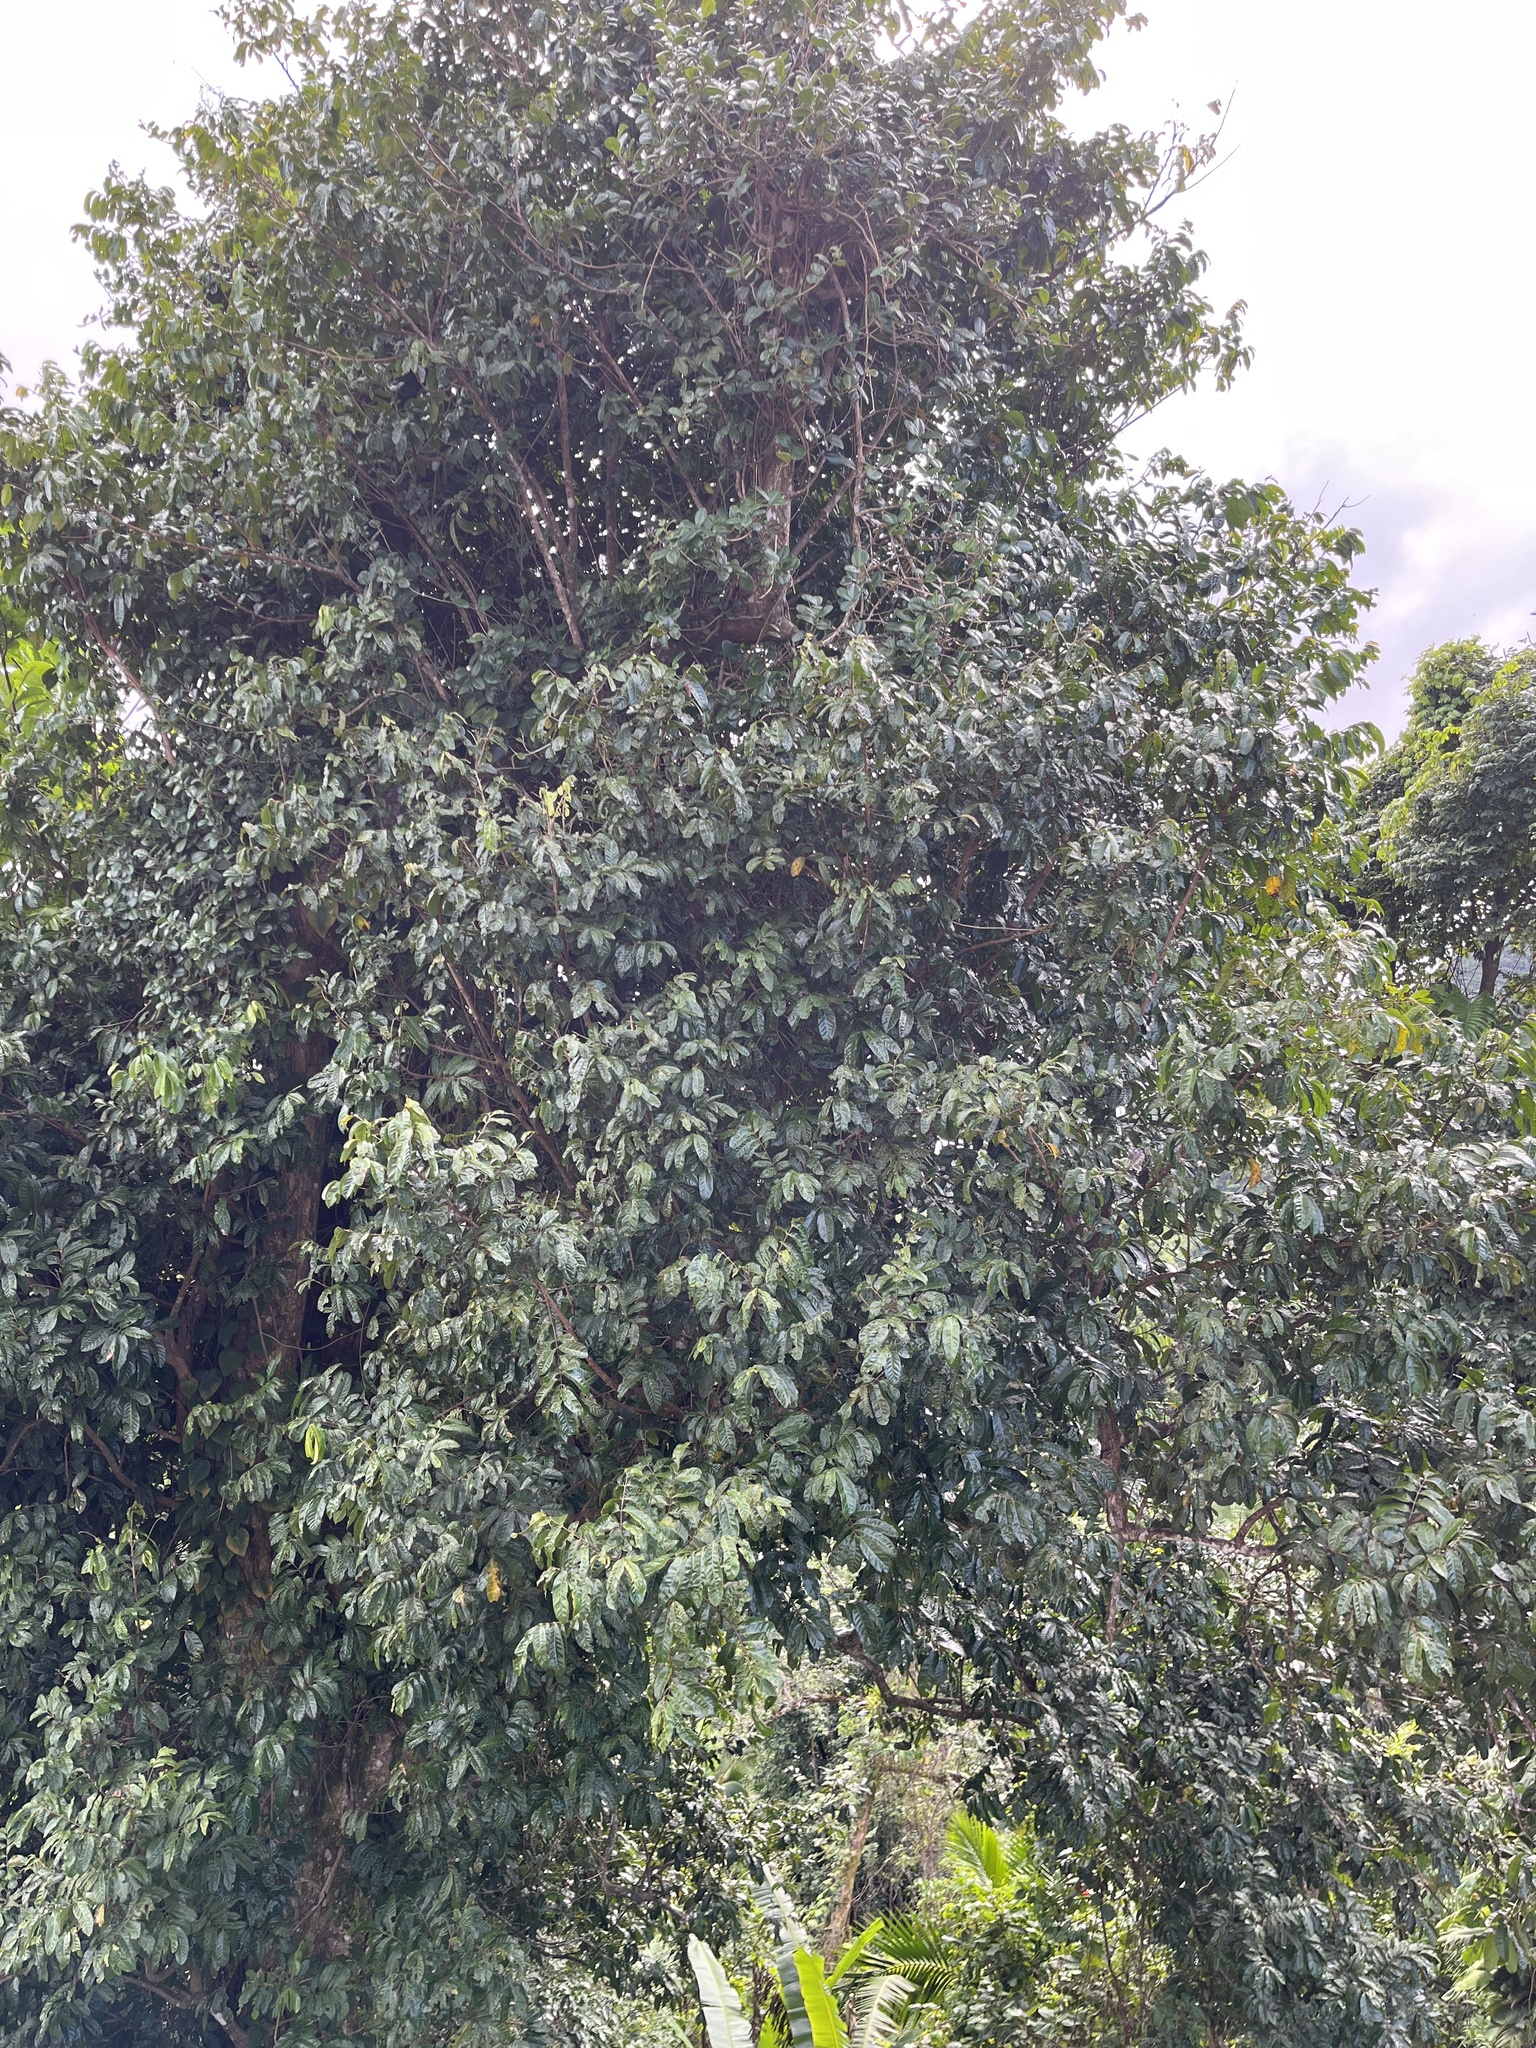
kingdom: Plantae
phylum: Tracheophyta
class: Magnoliopsida
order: Sapindales
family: Meliaceae
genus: Guarea
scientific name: Guarea guidonia
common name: American muskwood
